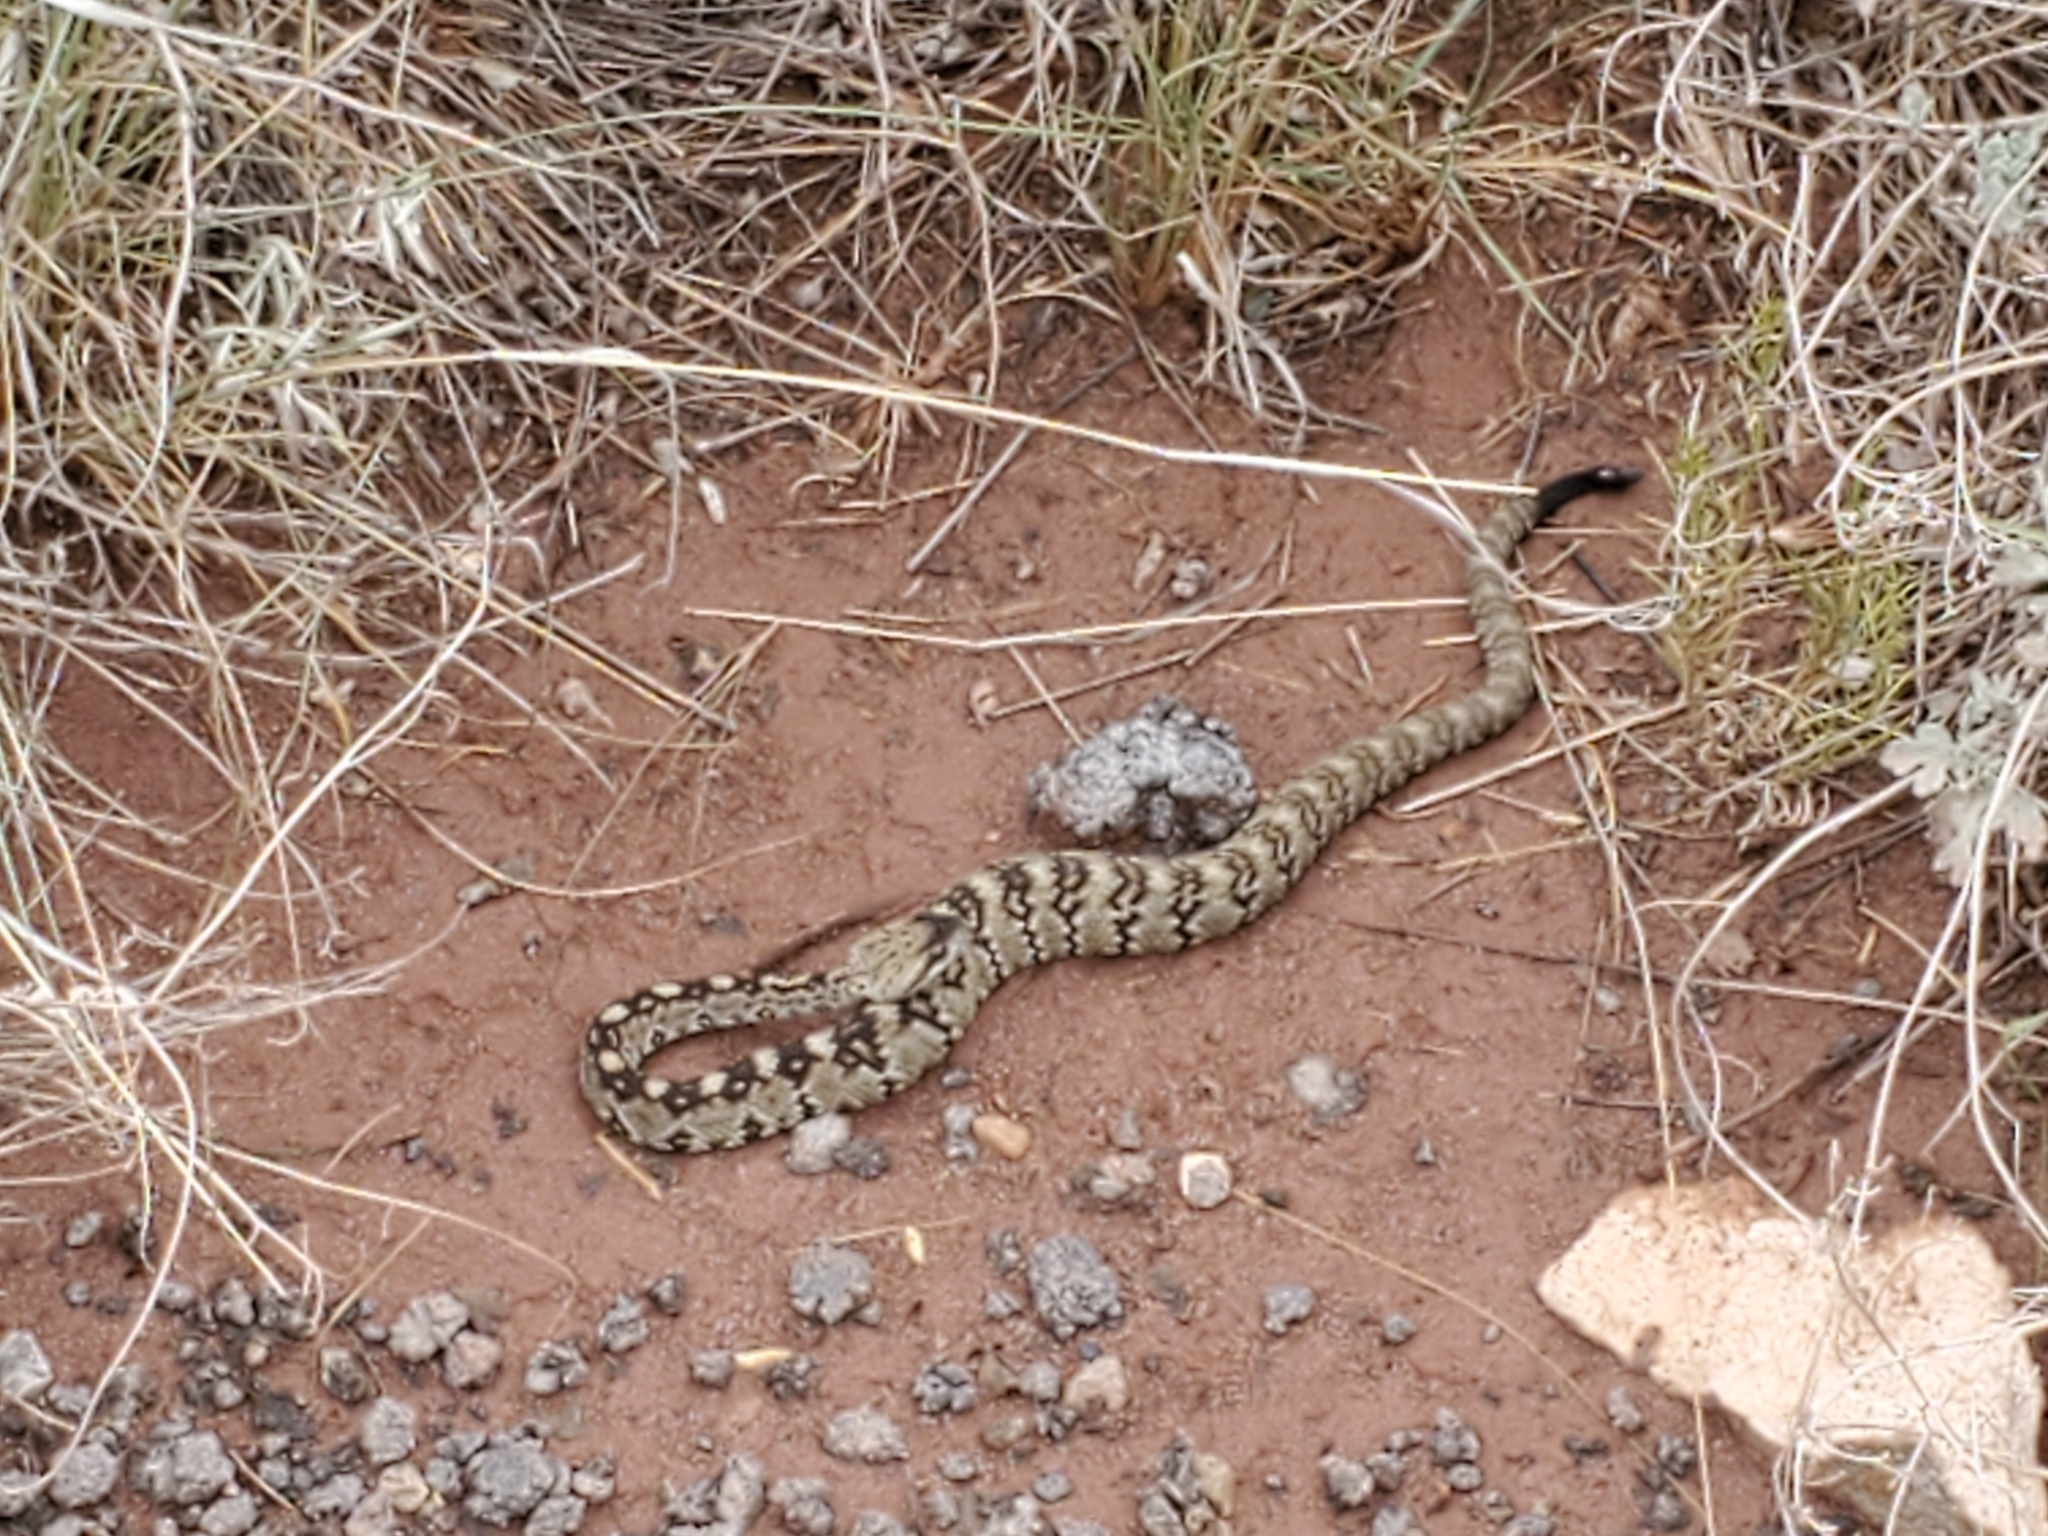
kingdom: Animalia
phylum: Chordata
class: Squamata
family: Viperidae
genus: Crotalus
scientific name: Crotalus ornatus
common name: Black-tailed rattlesnake
